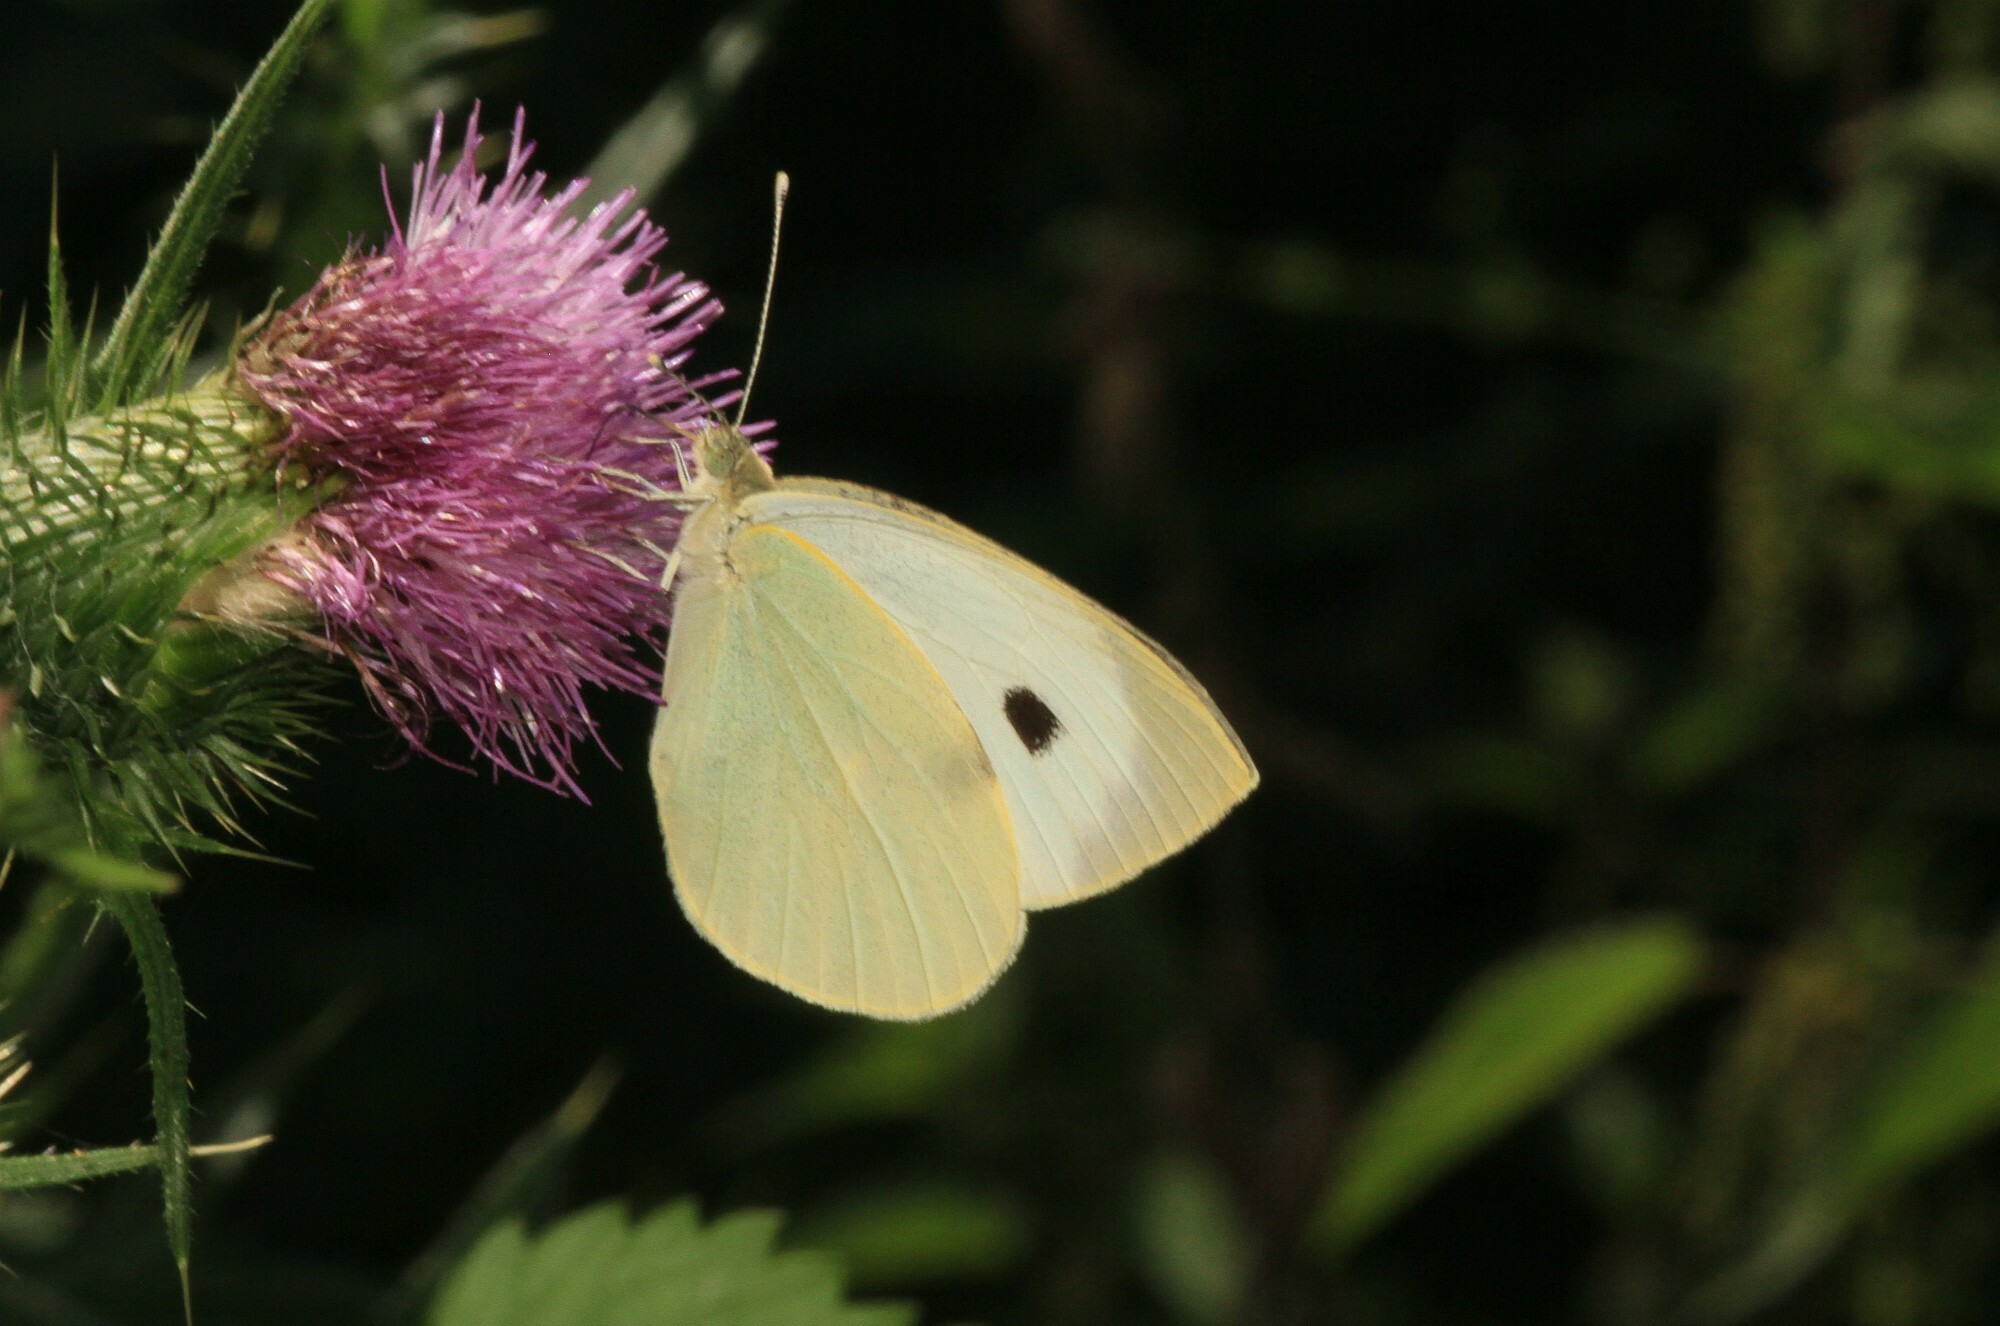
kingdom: Animalia
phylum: Arthropoda
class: Insecta
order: Lepidoptera
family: Pieridae
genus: Pieris
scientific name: Pieris brassicae
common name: Large white
